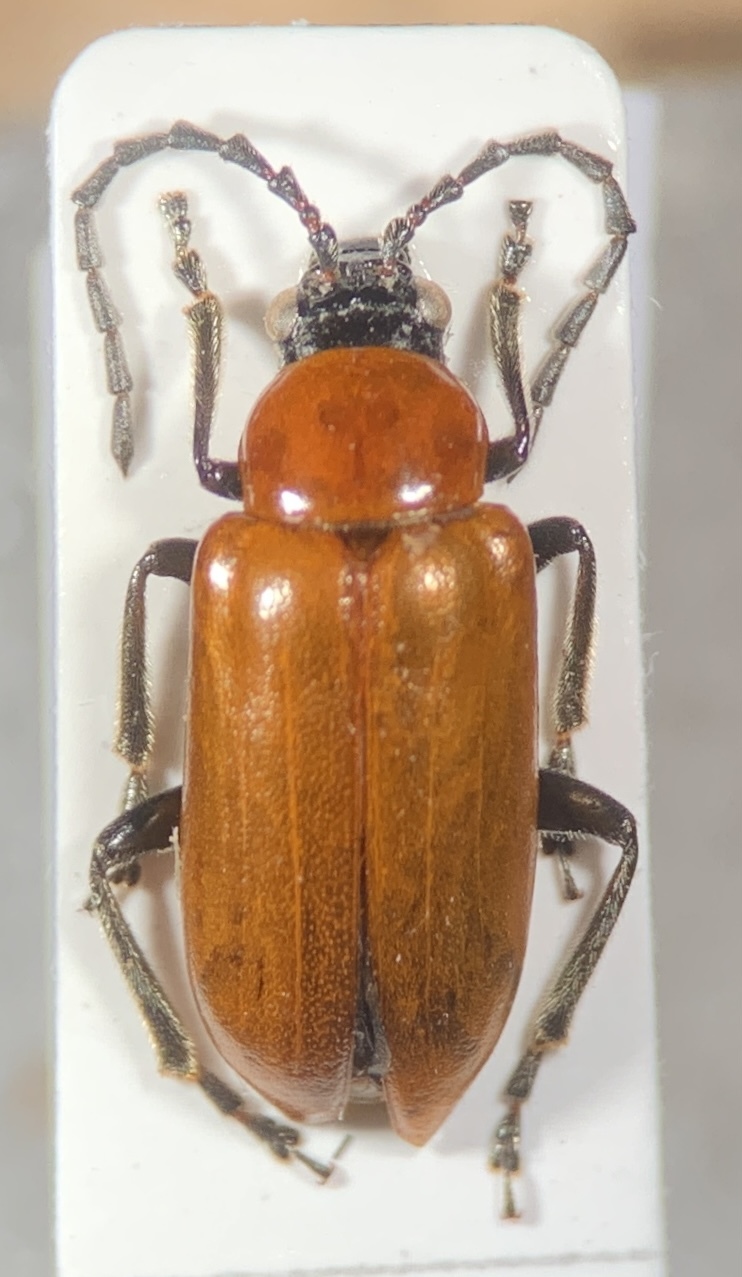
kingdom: Animalia
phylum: Arthropoda
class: Insecta
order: Coleoptera
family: Chrysomelidae
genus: Exosoma
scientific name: Exosoma lusitanicum
